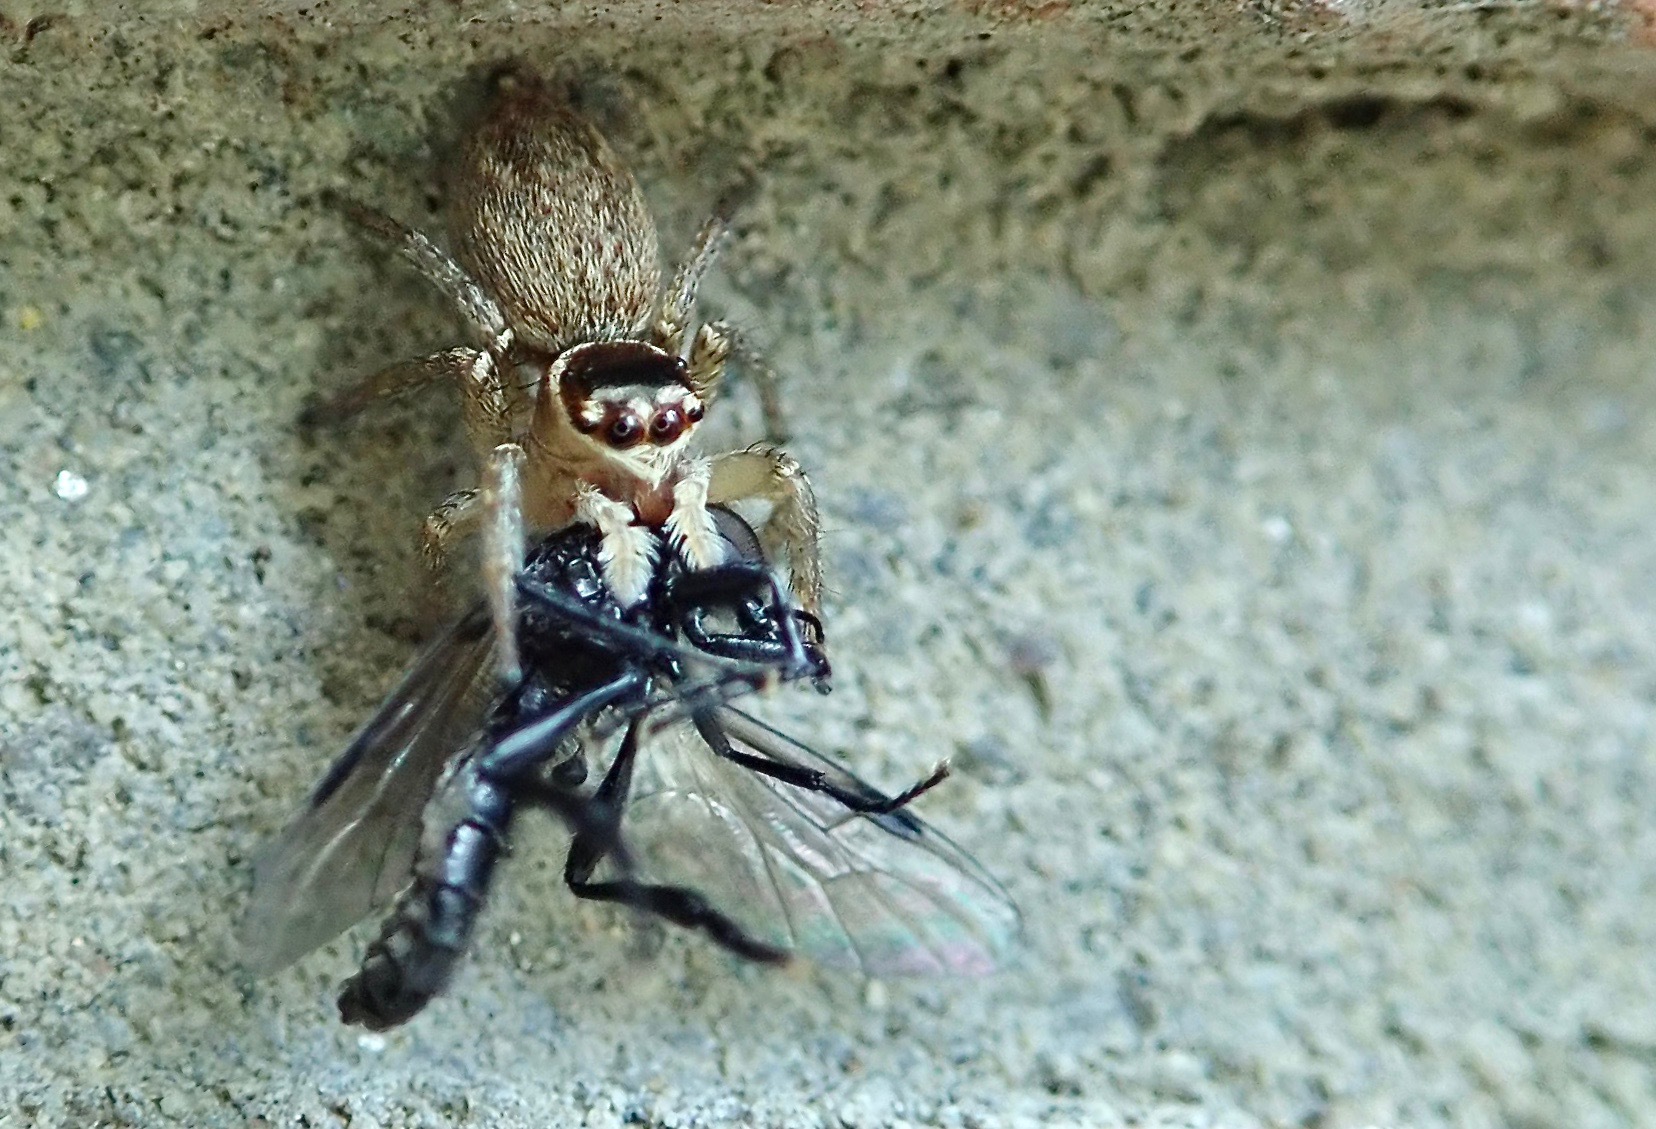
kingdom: Animalia
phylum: Arthropoda
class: Arachnida
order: Araneae
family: Salticidae
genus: Maratus
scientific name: Maratus griseus
